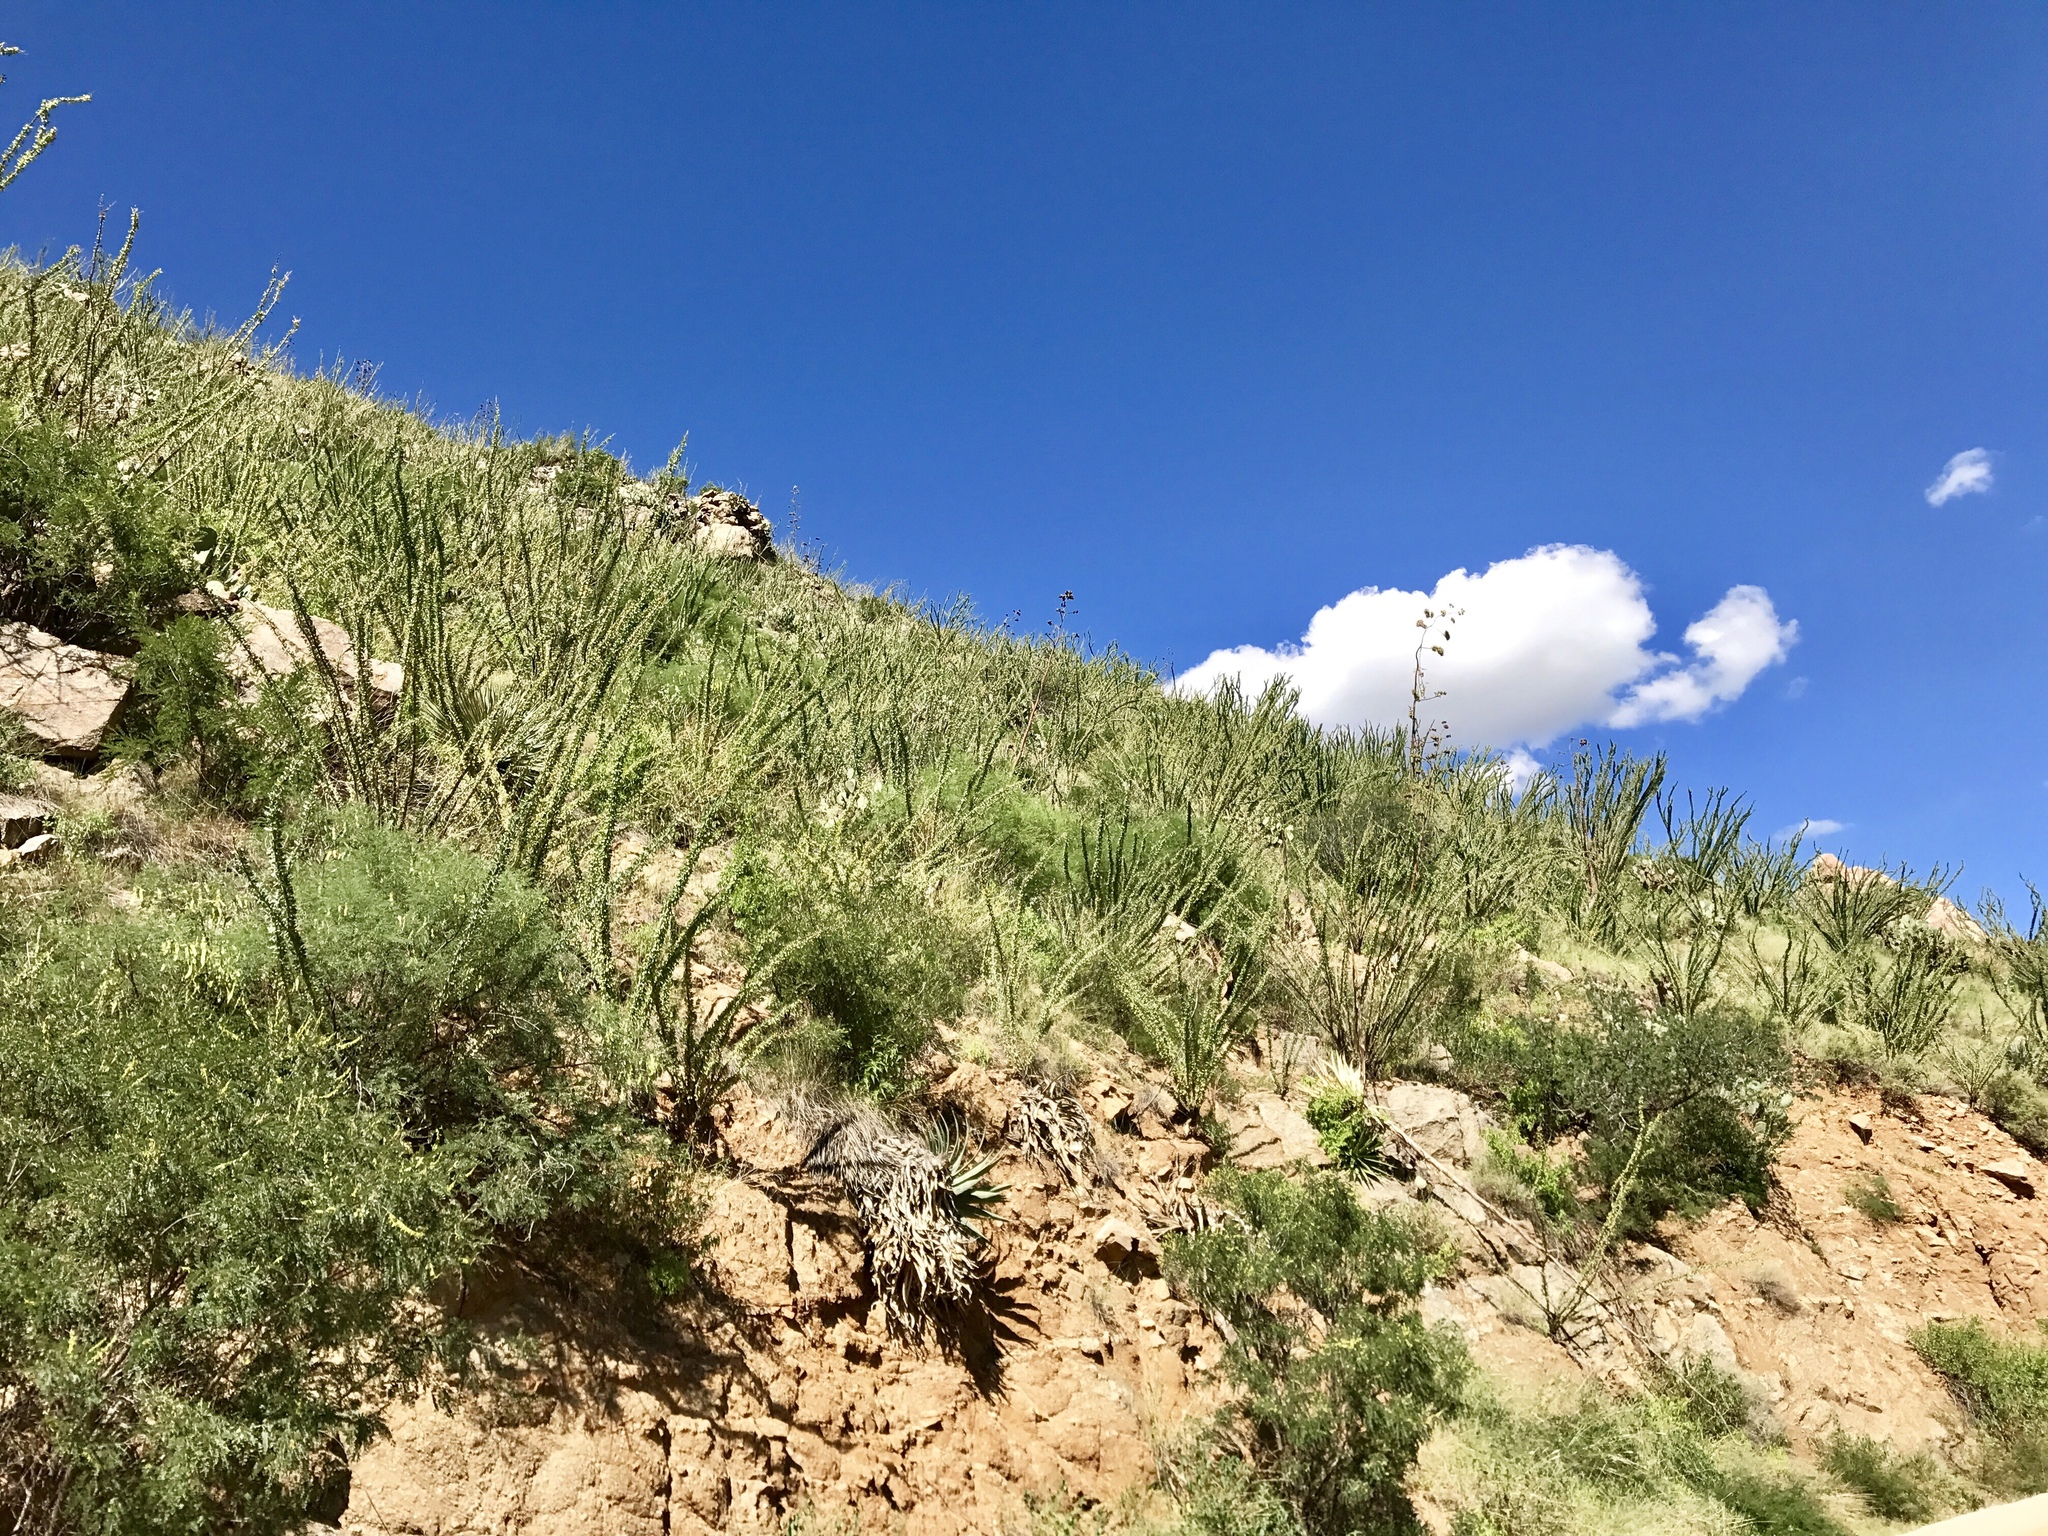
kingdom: Plantae
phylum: Tracheophyta
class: Magnoliopsida
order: Ericales
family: Fouquieriaceae
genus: Fouquieria
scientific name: Fouquieria splendens
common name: Vine-cactus
